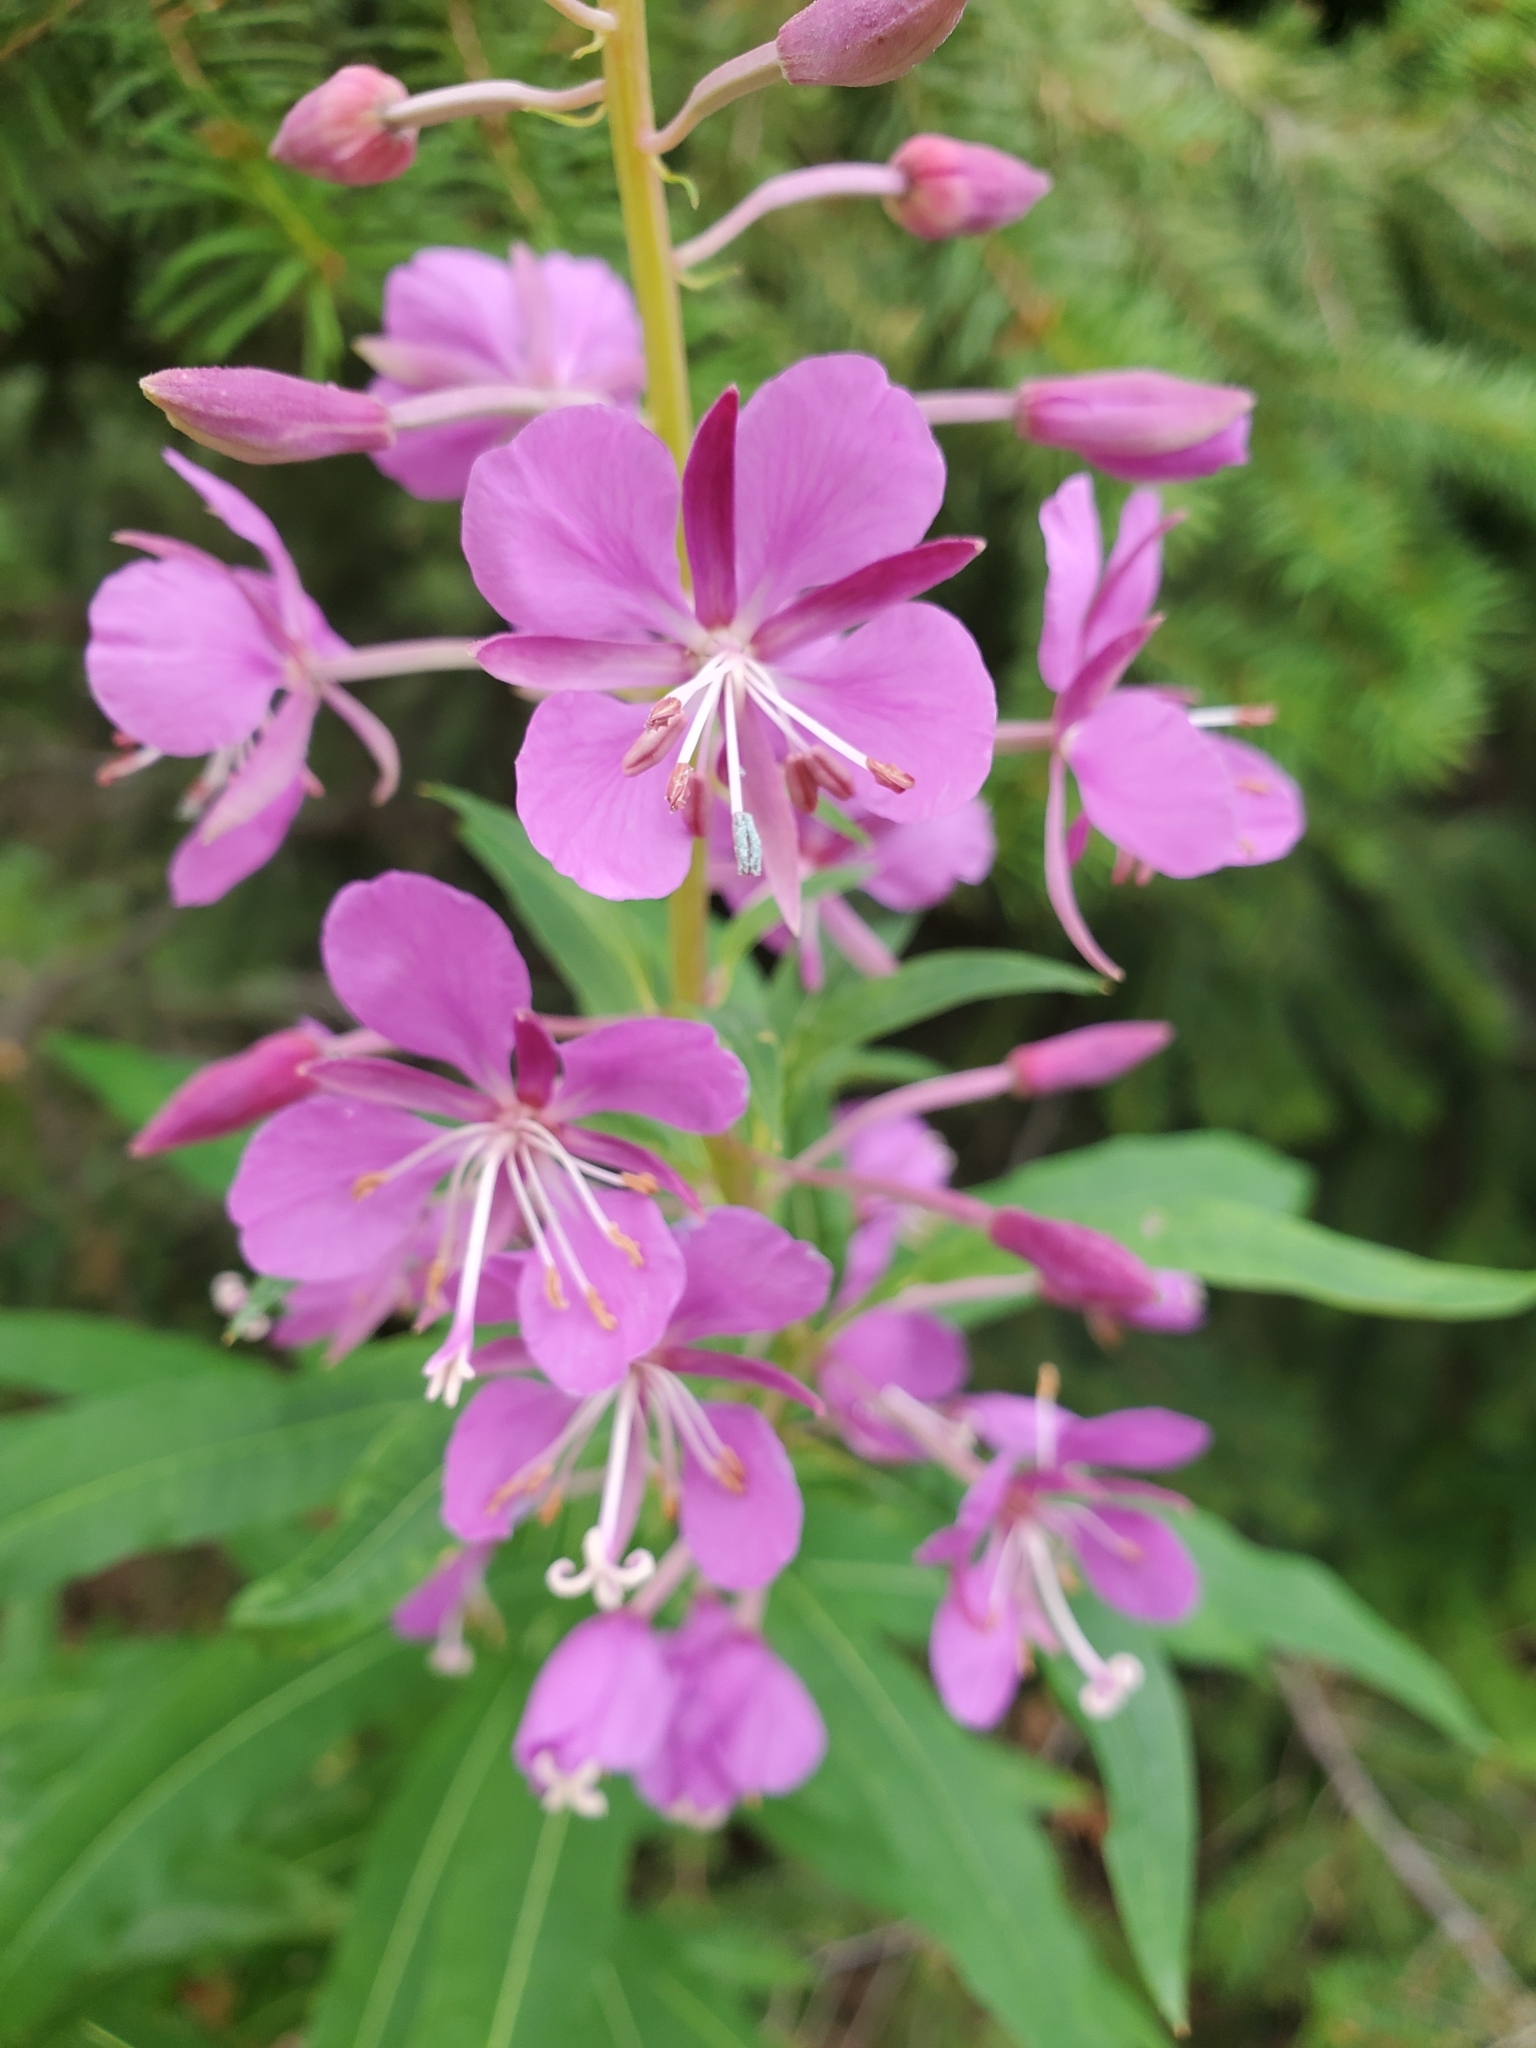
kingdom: Plantae
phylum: Tracheophyta
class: Magnoliopsida
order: Myrtales
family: Onagraceae
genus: Chamaenerion
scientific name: Chamaenerion angustifolium
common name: Fireweed
